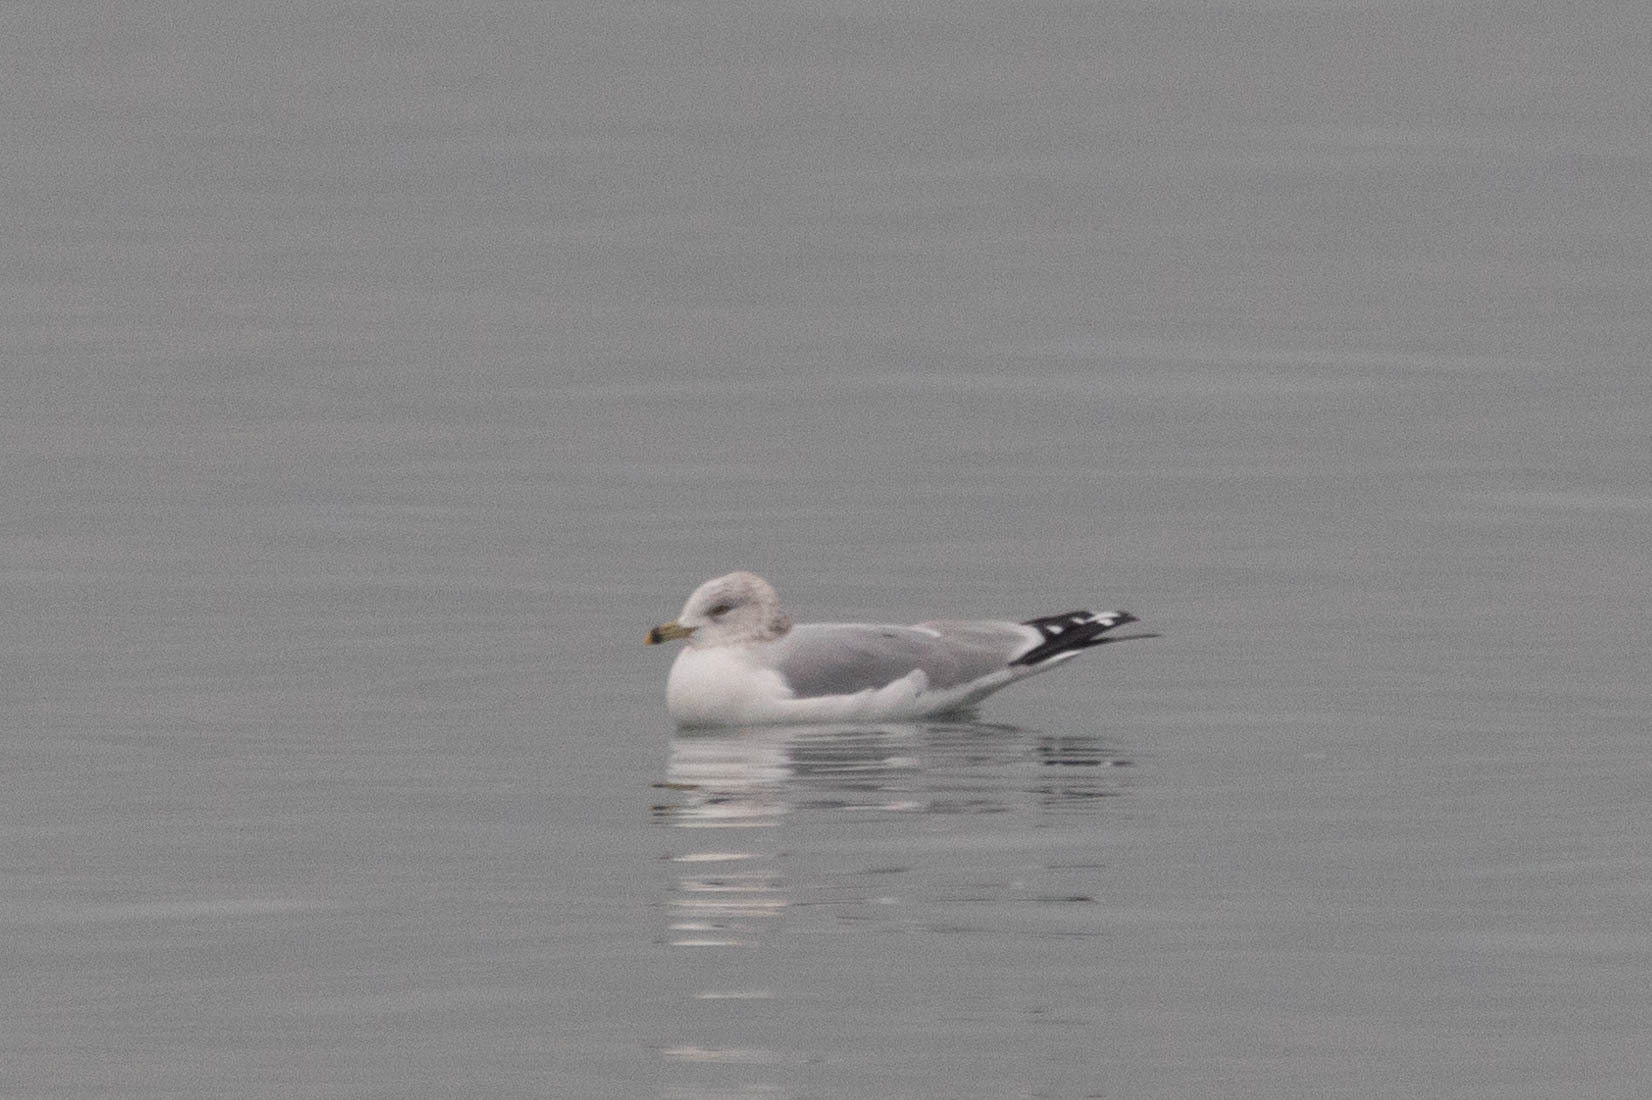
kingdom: Animalia
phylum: Chordata
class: Aves
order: Charadriiformes
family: Laridae
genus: Larus
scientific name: Larus delawarensis
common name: Ring-billed gull
